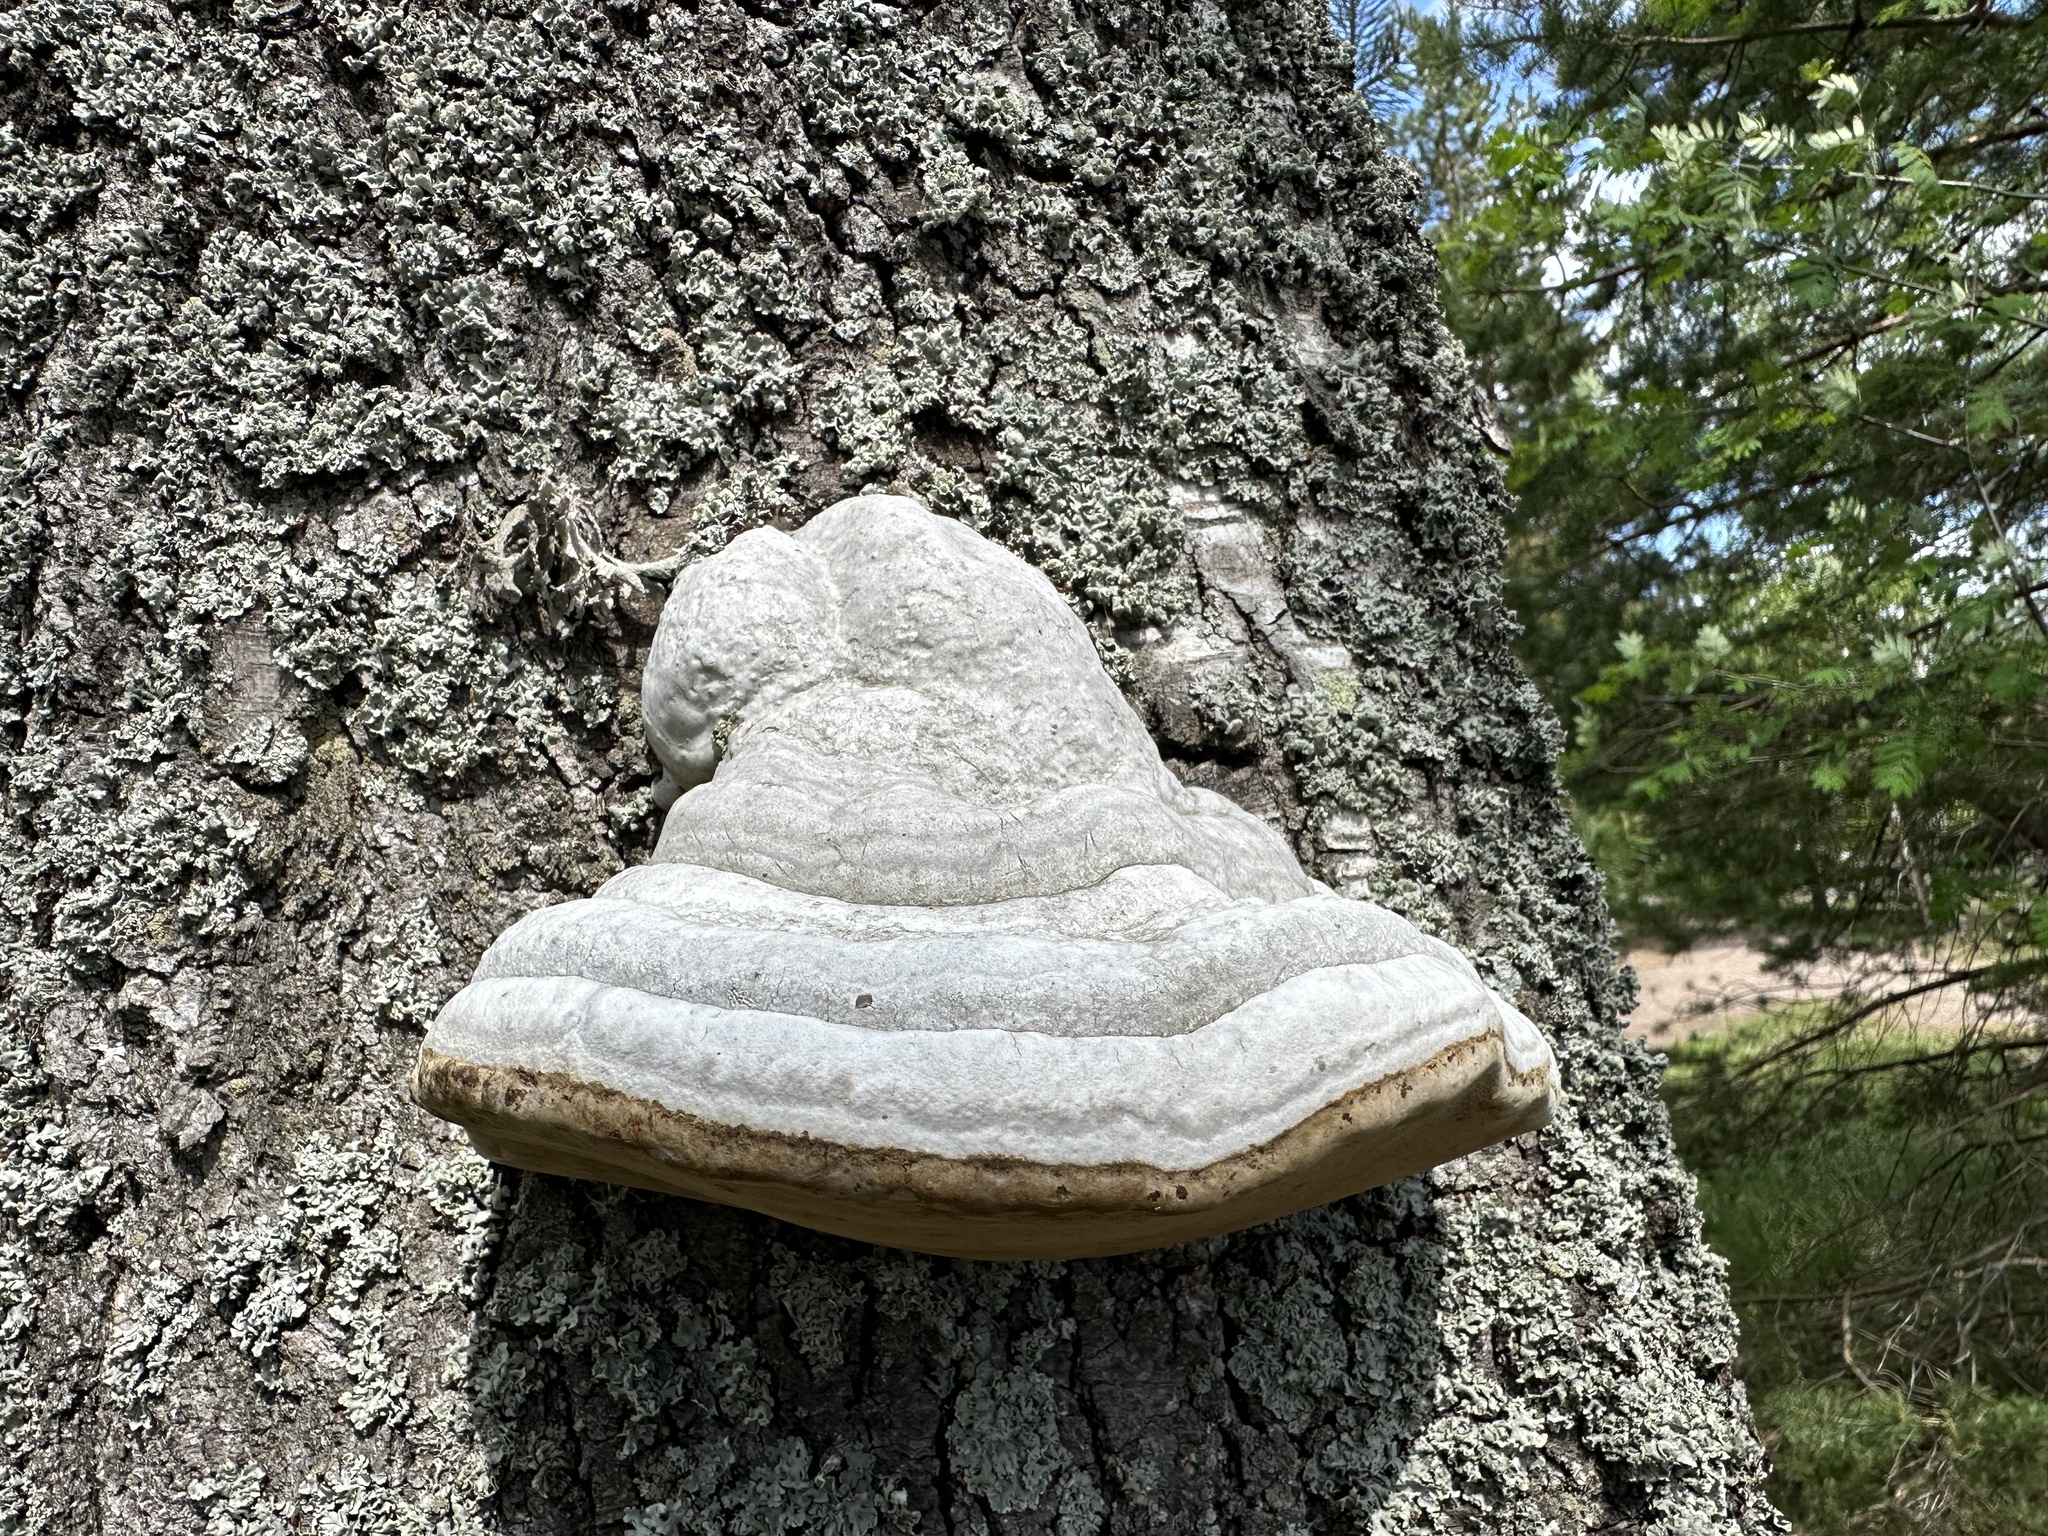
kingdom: Fungi
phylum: Basidiomycota
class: Agaricomycetes
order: Polyporales
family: Polyporaceae
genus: Fomes
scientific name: Fomes fomentarius
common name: Hoof fungus
